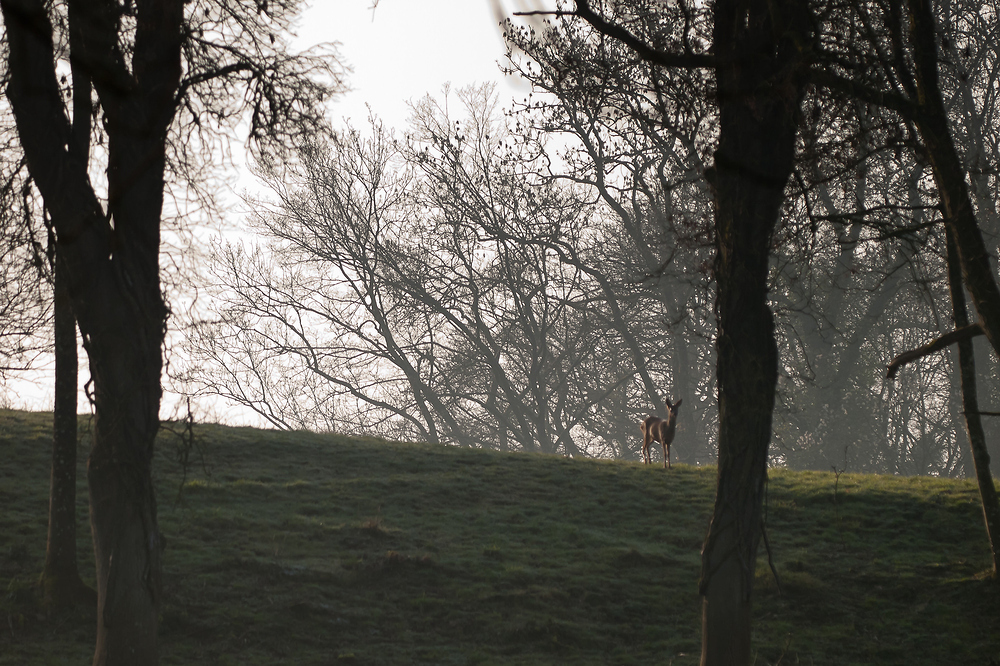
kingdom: Animalia
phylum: Chordata
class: Mammalia
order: Artiodactyla
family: Cervidae
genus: Capreolus
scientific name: Capreolus capreolus
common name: Western roe deer
